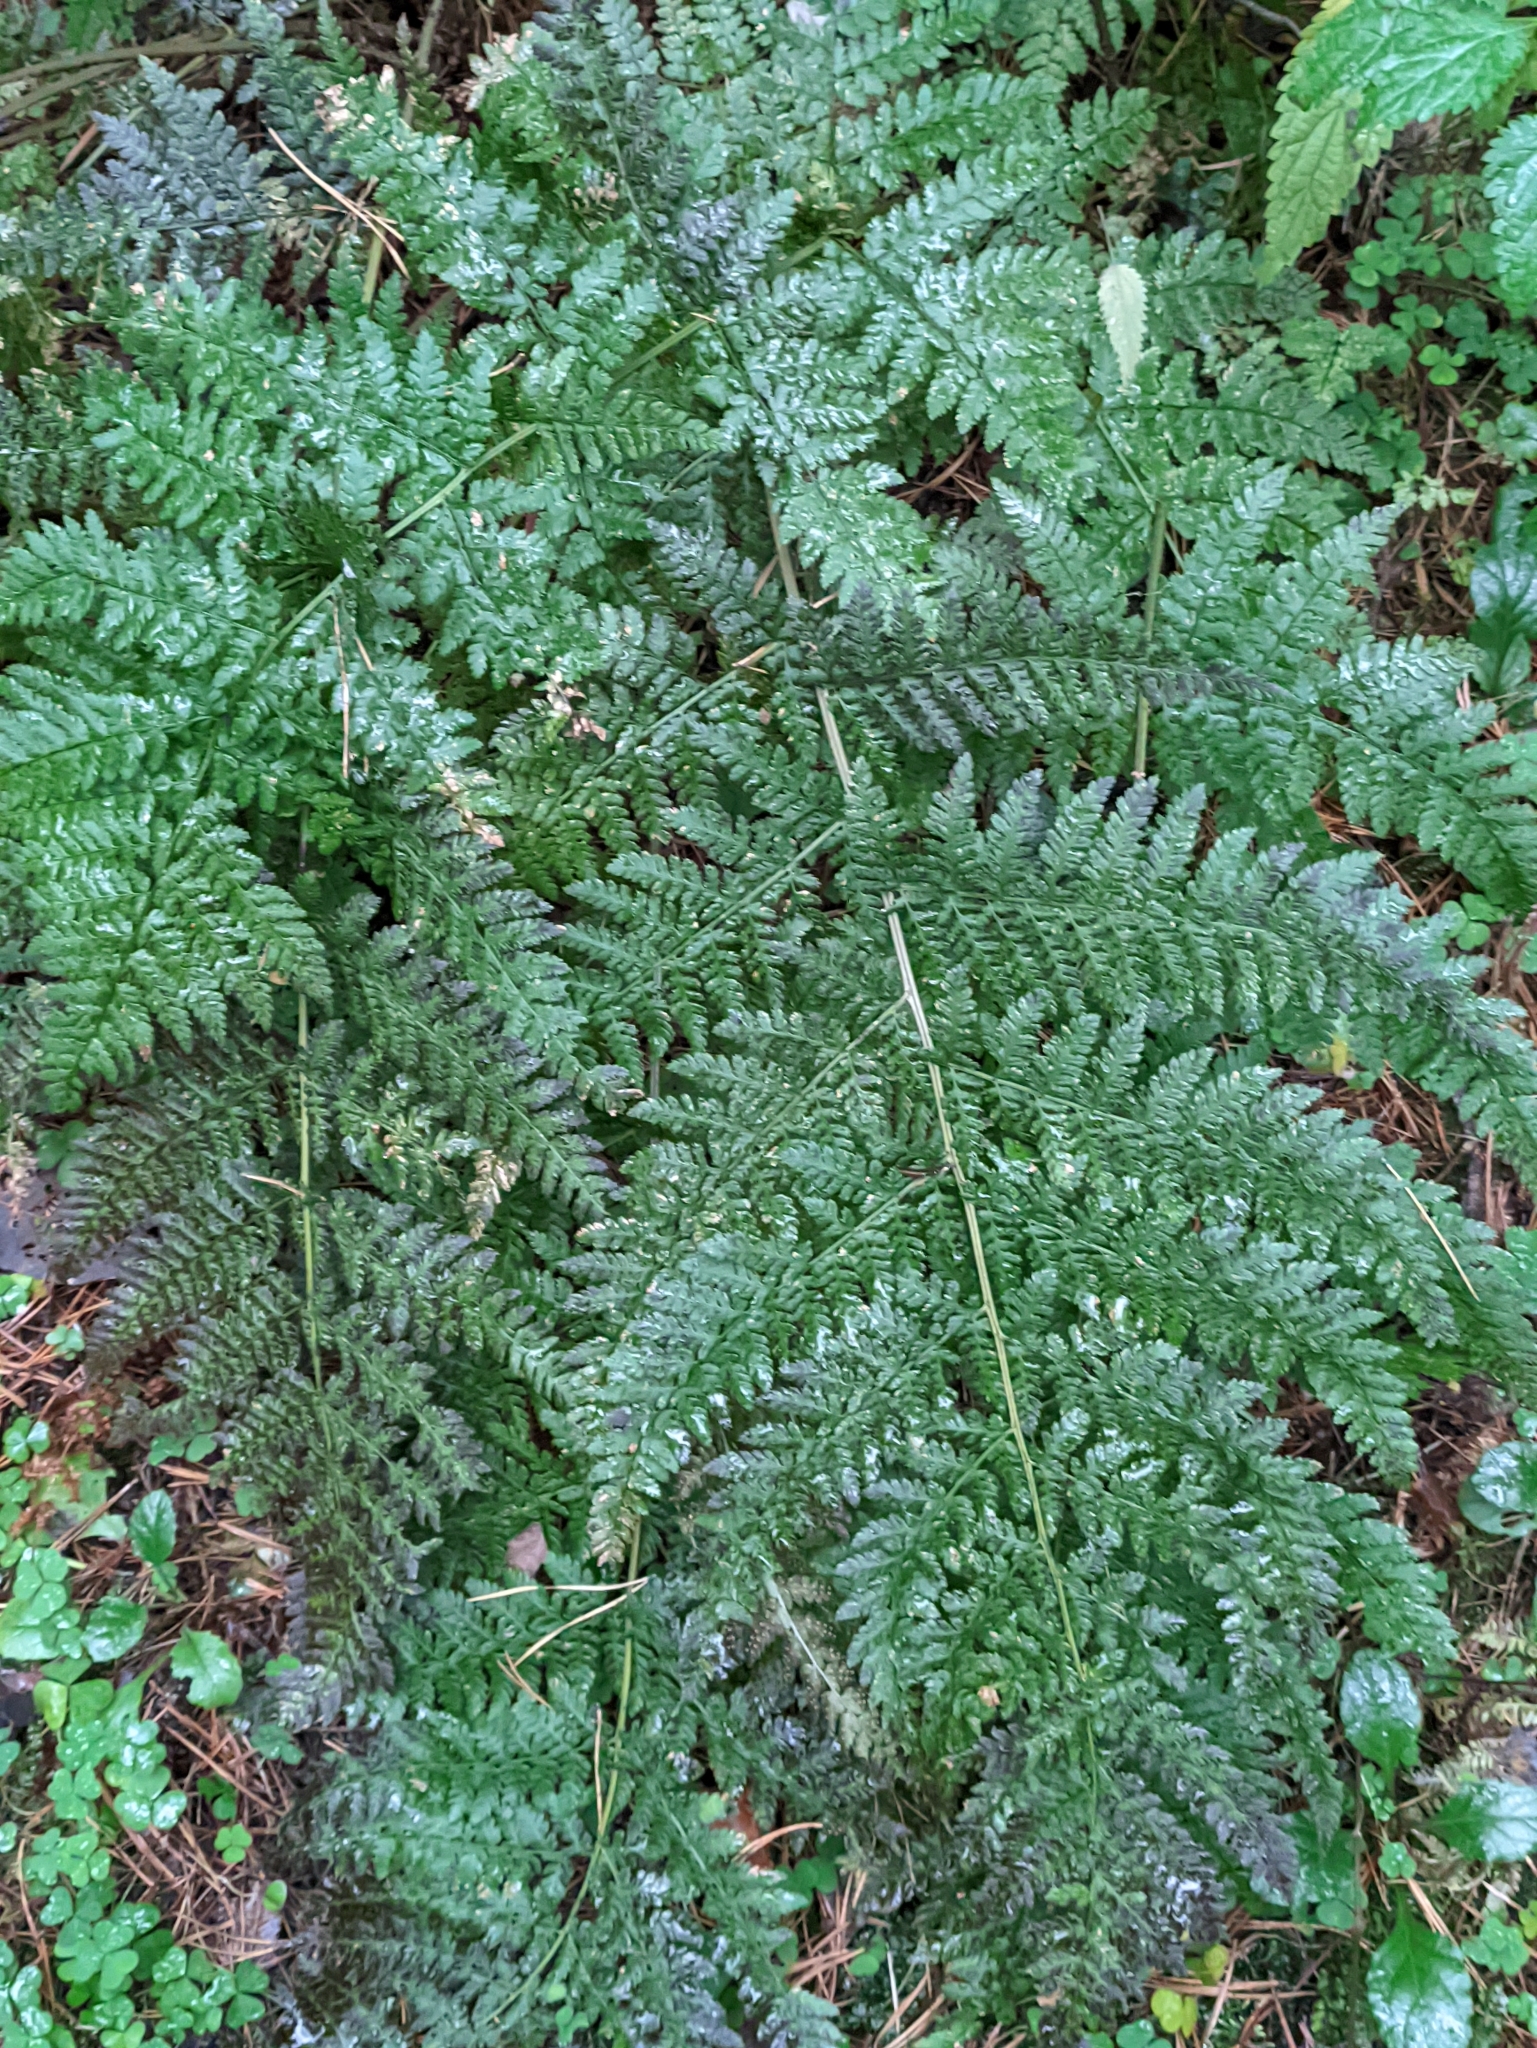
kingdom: Plantae
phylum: Tracheophyta
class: Polypodiopsida
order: Polypodiales
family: Dryopteridaceae
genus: Dryopteris
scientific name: Dryopteris expansa
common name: Northern buckler fern
